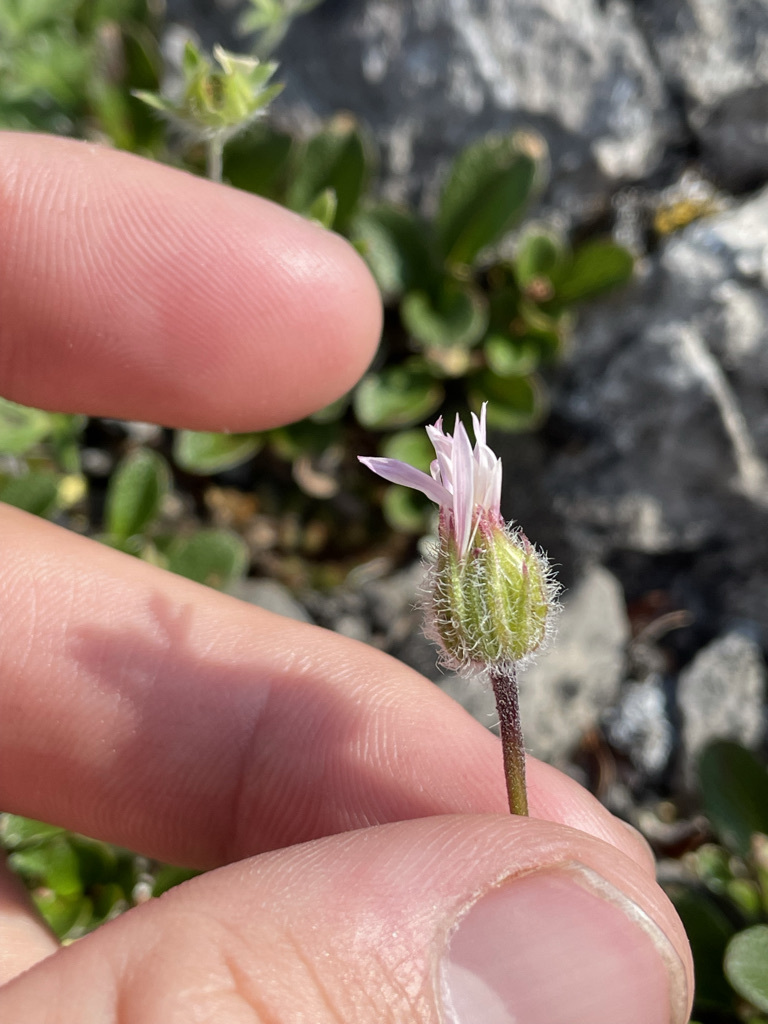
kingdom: Plantae
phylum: Tracheophyta
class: Magnoliopsida
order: Asterales
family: Asteraceae
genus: Erigeron
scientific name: Erigeron trifidus
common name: Alberta fleabane
